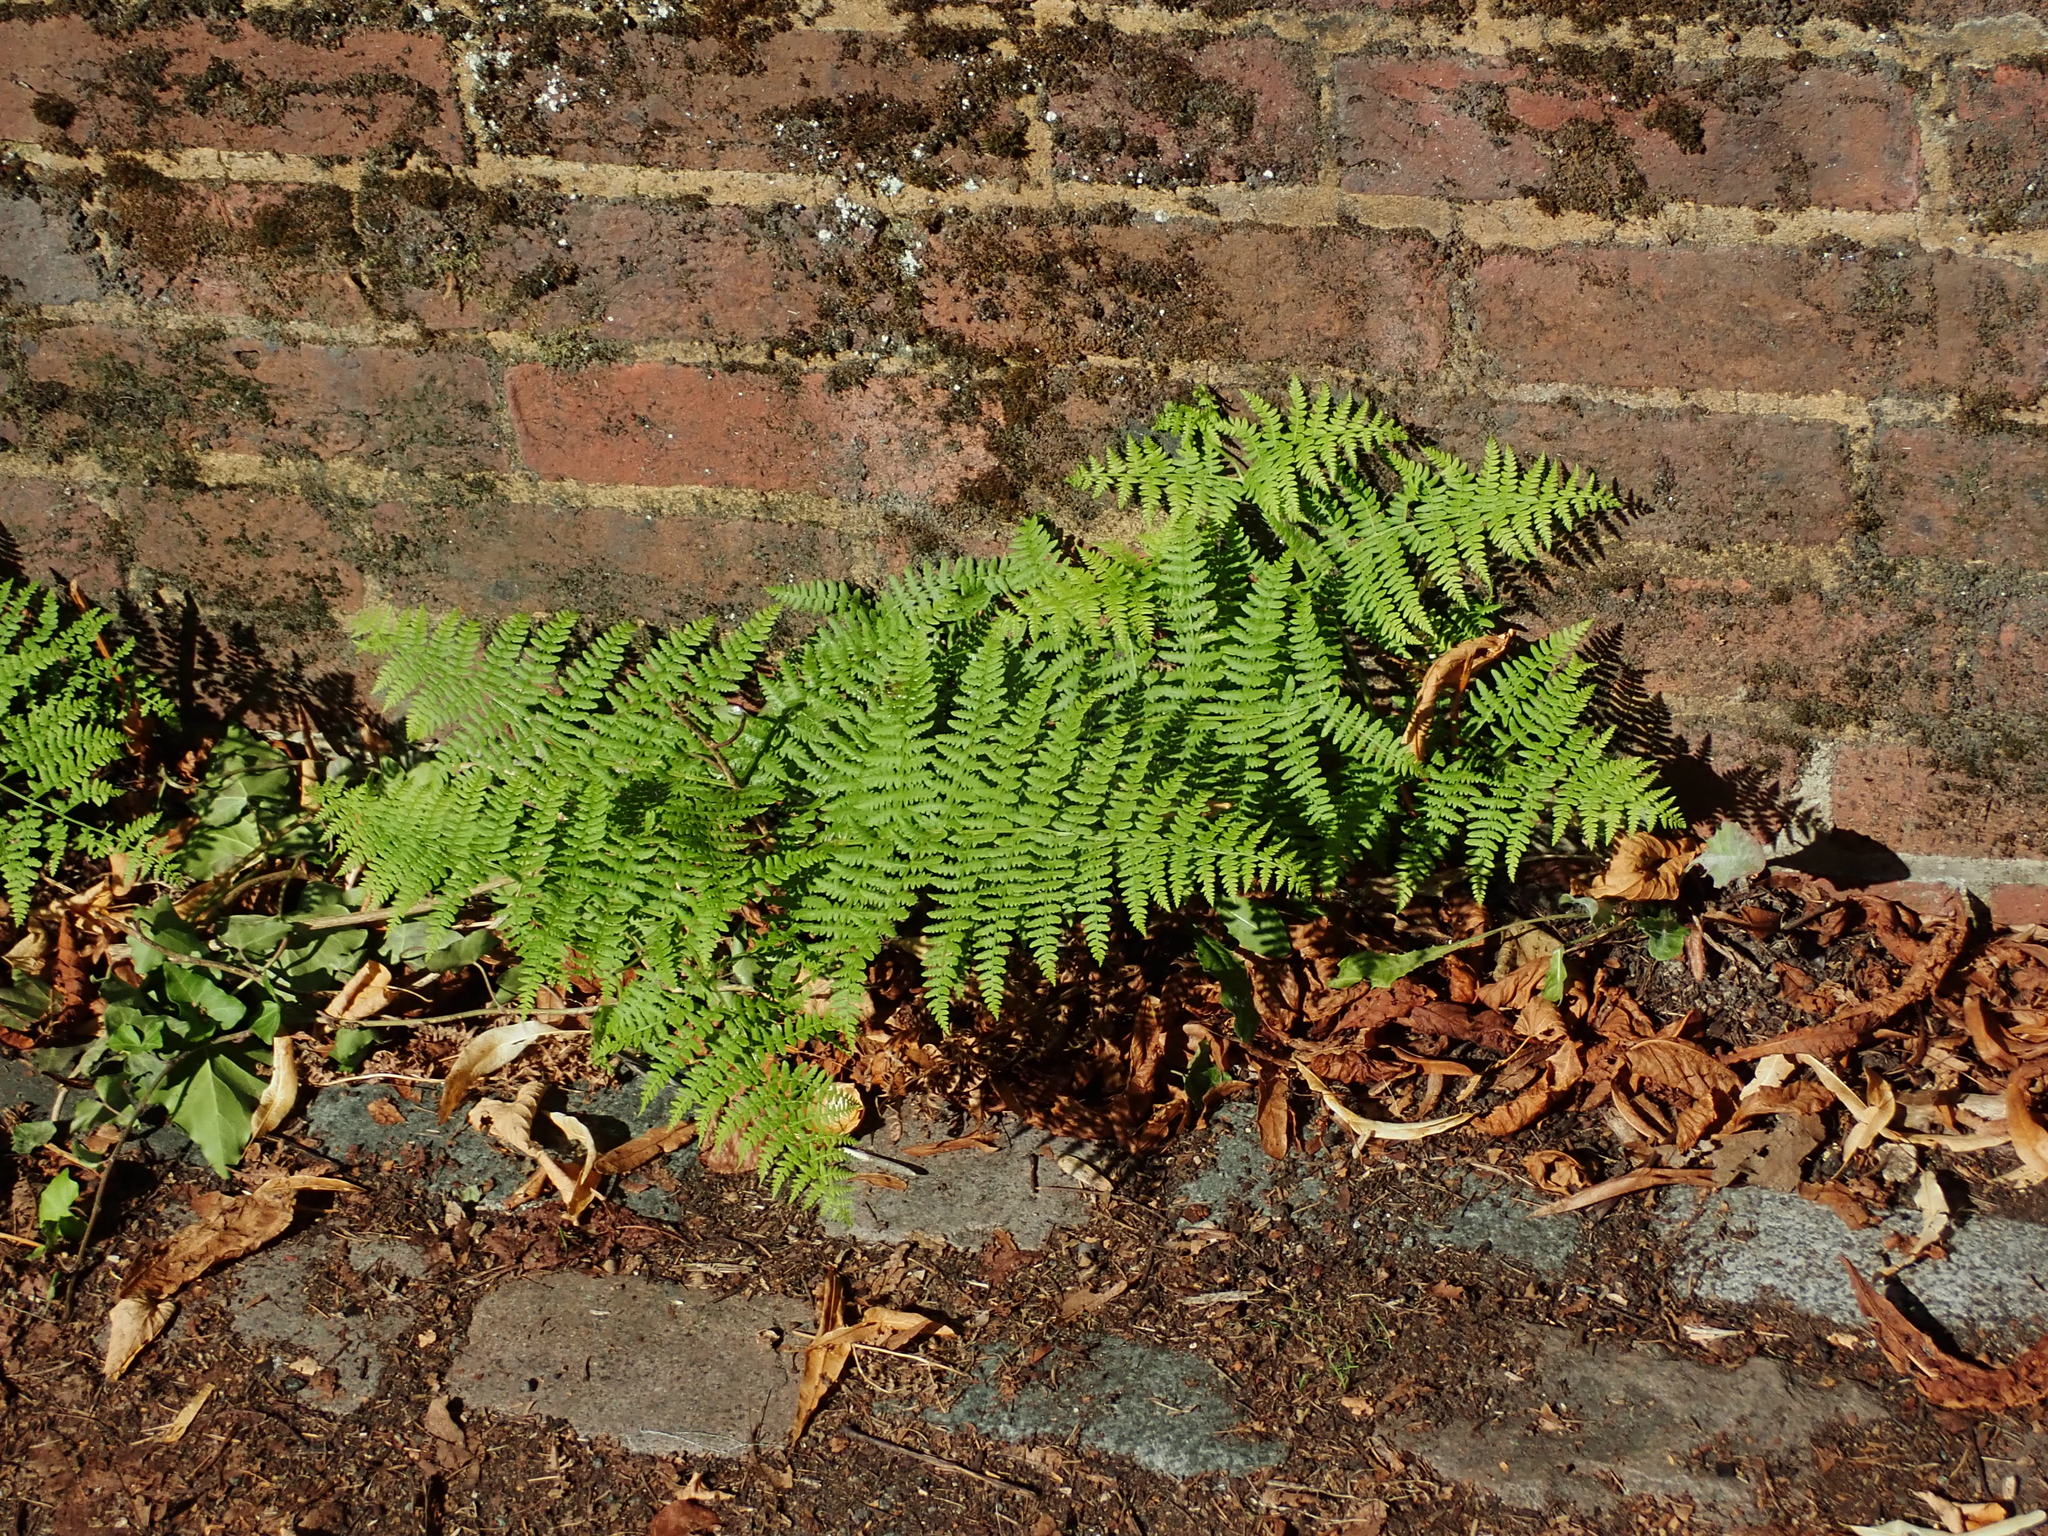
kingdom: Plantae
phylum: Tracheophyta
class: Polypodiopsida
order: Polypodiales
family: Dennstaedtiaceae
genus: Pteridium
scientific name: Pteridium aquilinum
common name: Bracken
